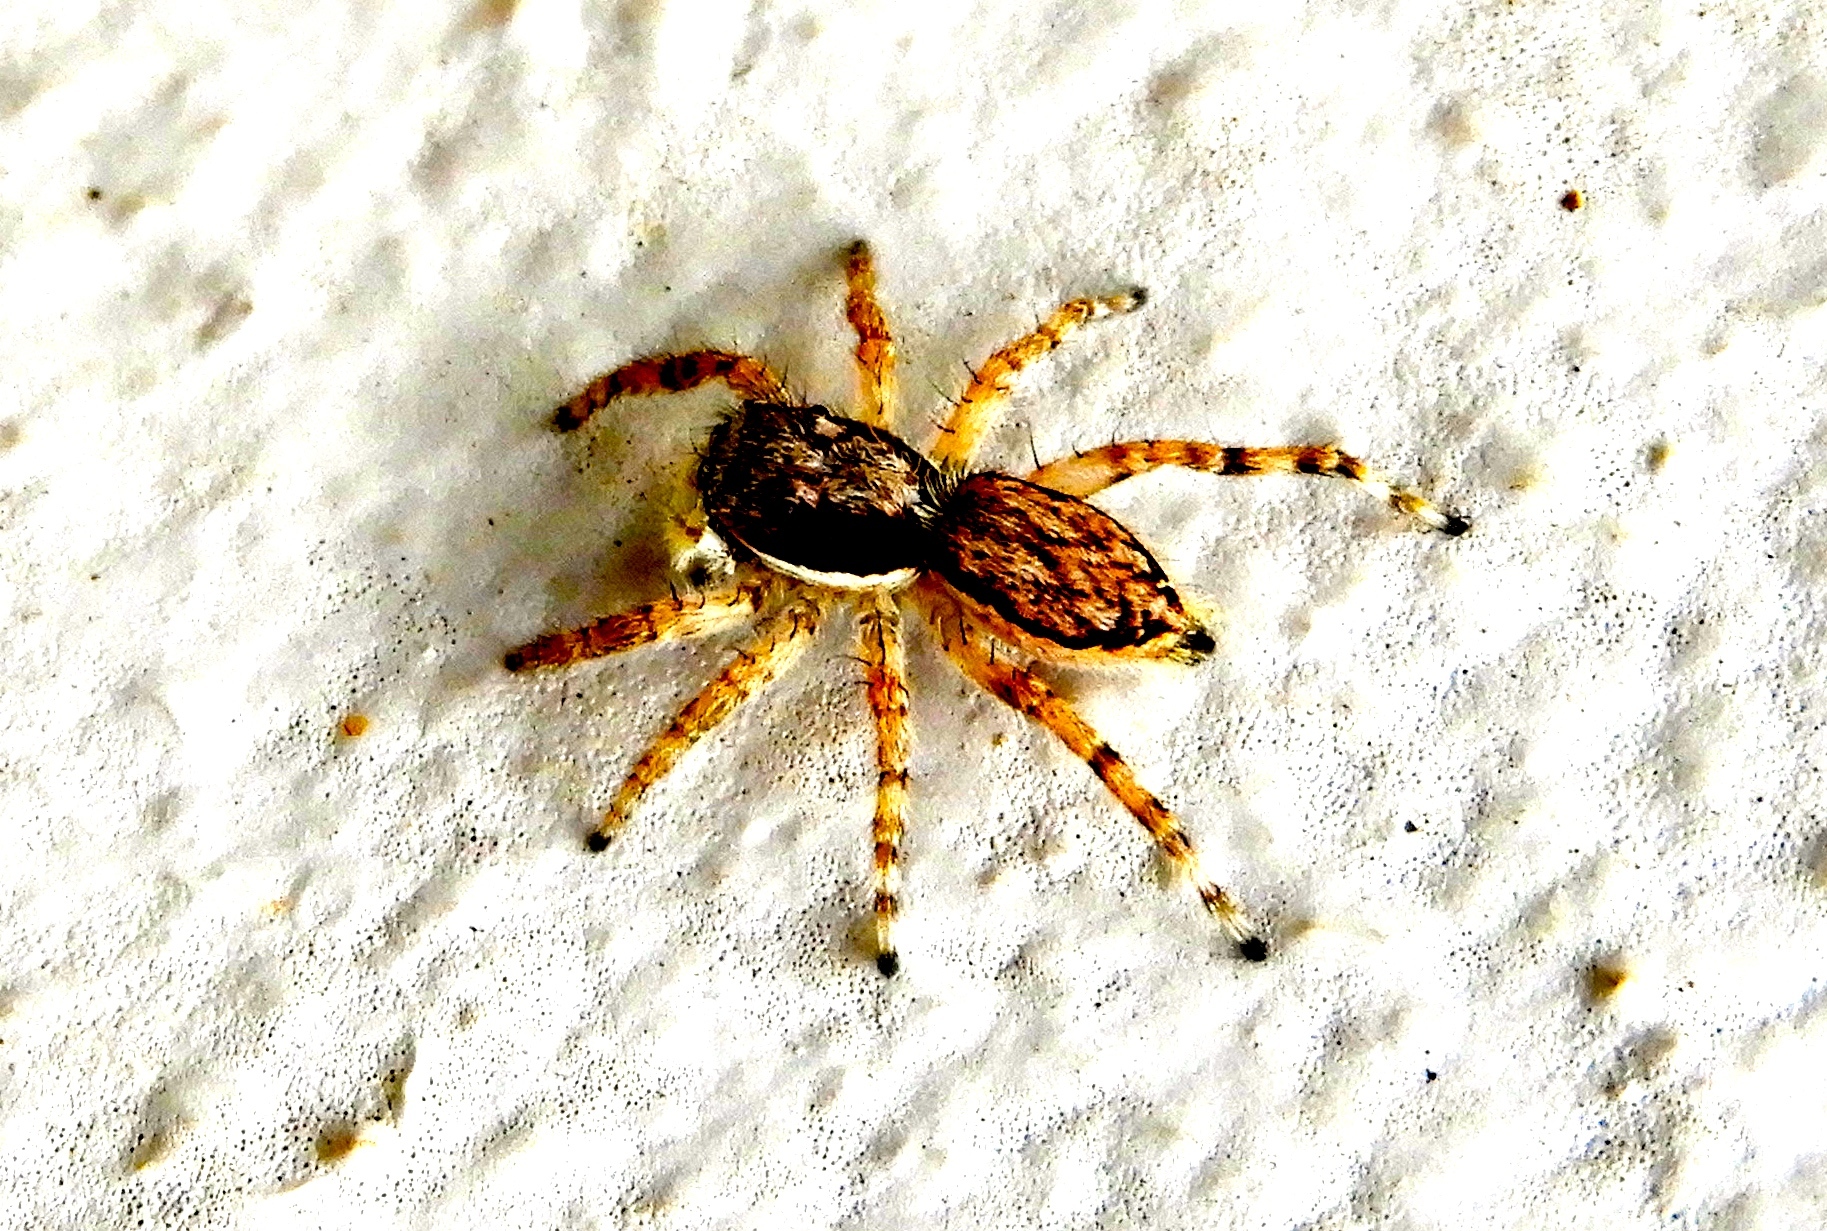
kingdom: Animalia
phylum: Arthropoda
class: Arachnida
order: Araneae
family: Salticidae
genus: Menemerus
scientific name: Menemerus bivittatus
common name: Gray wall jumper
